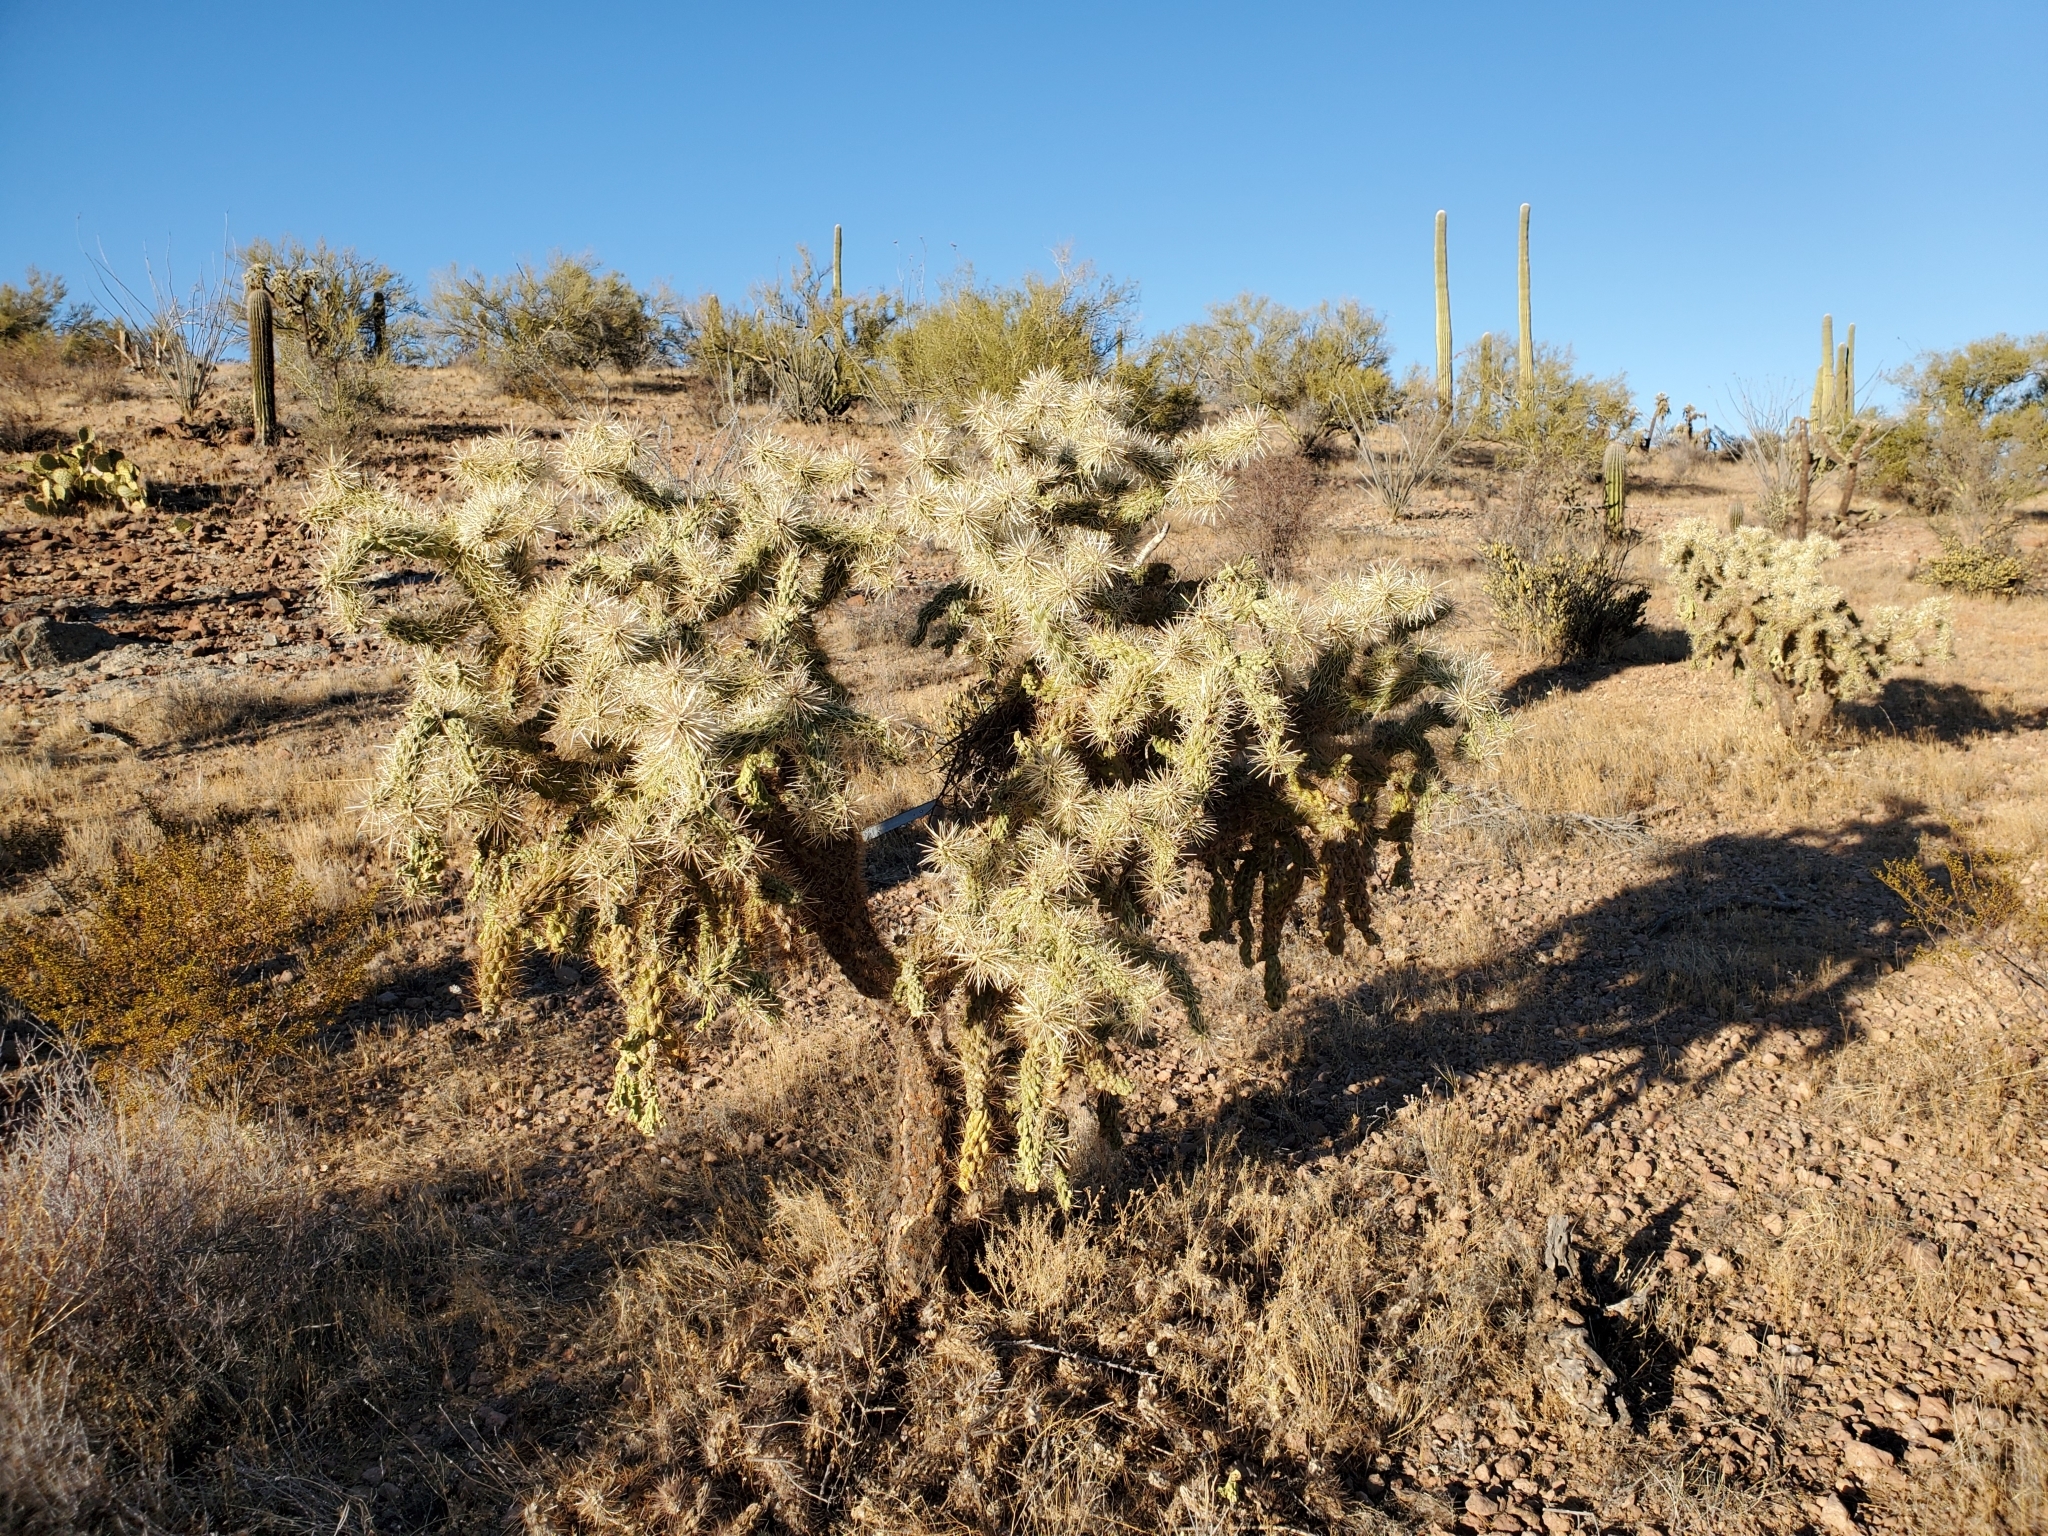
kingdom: Plantae
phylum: Tracheophyta
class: Magnoliopsida
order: Caryophyllales
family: Cactaceae
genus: Cylindropuntia
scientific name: Cylindropuntia fulgida
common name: Jumping cholla
